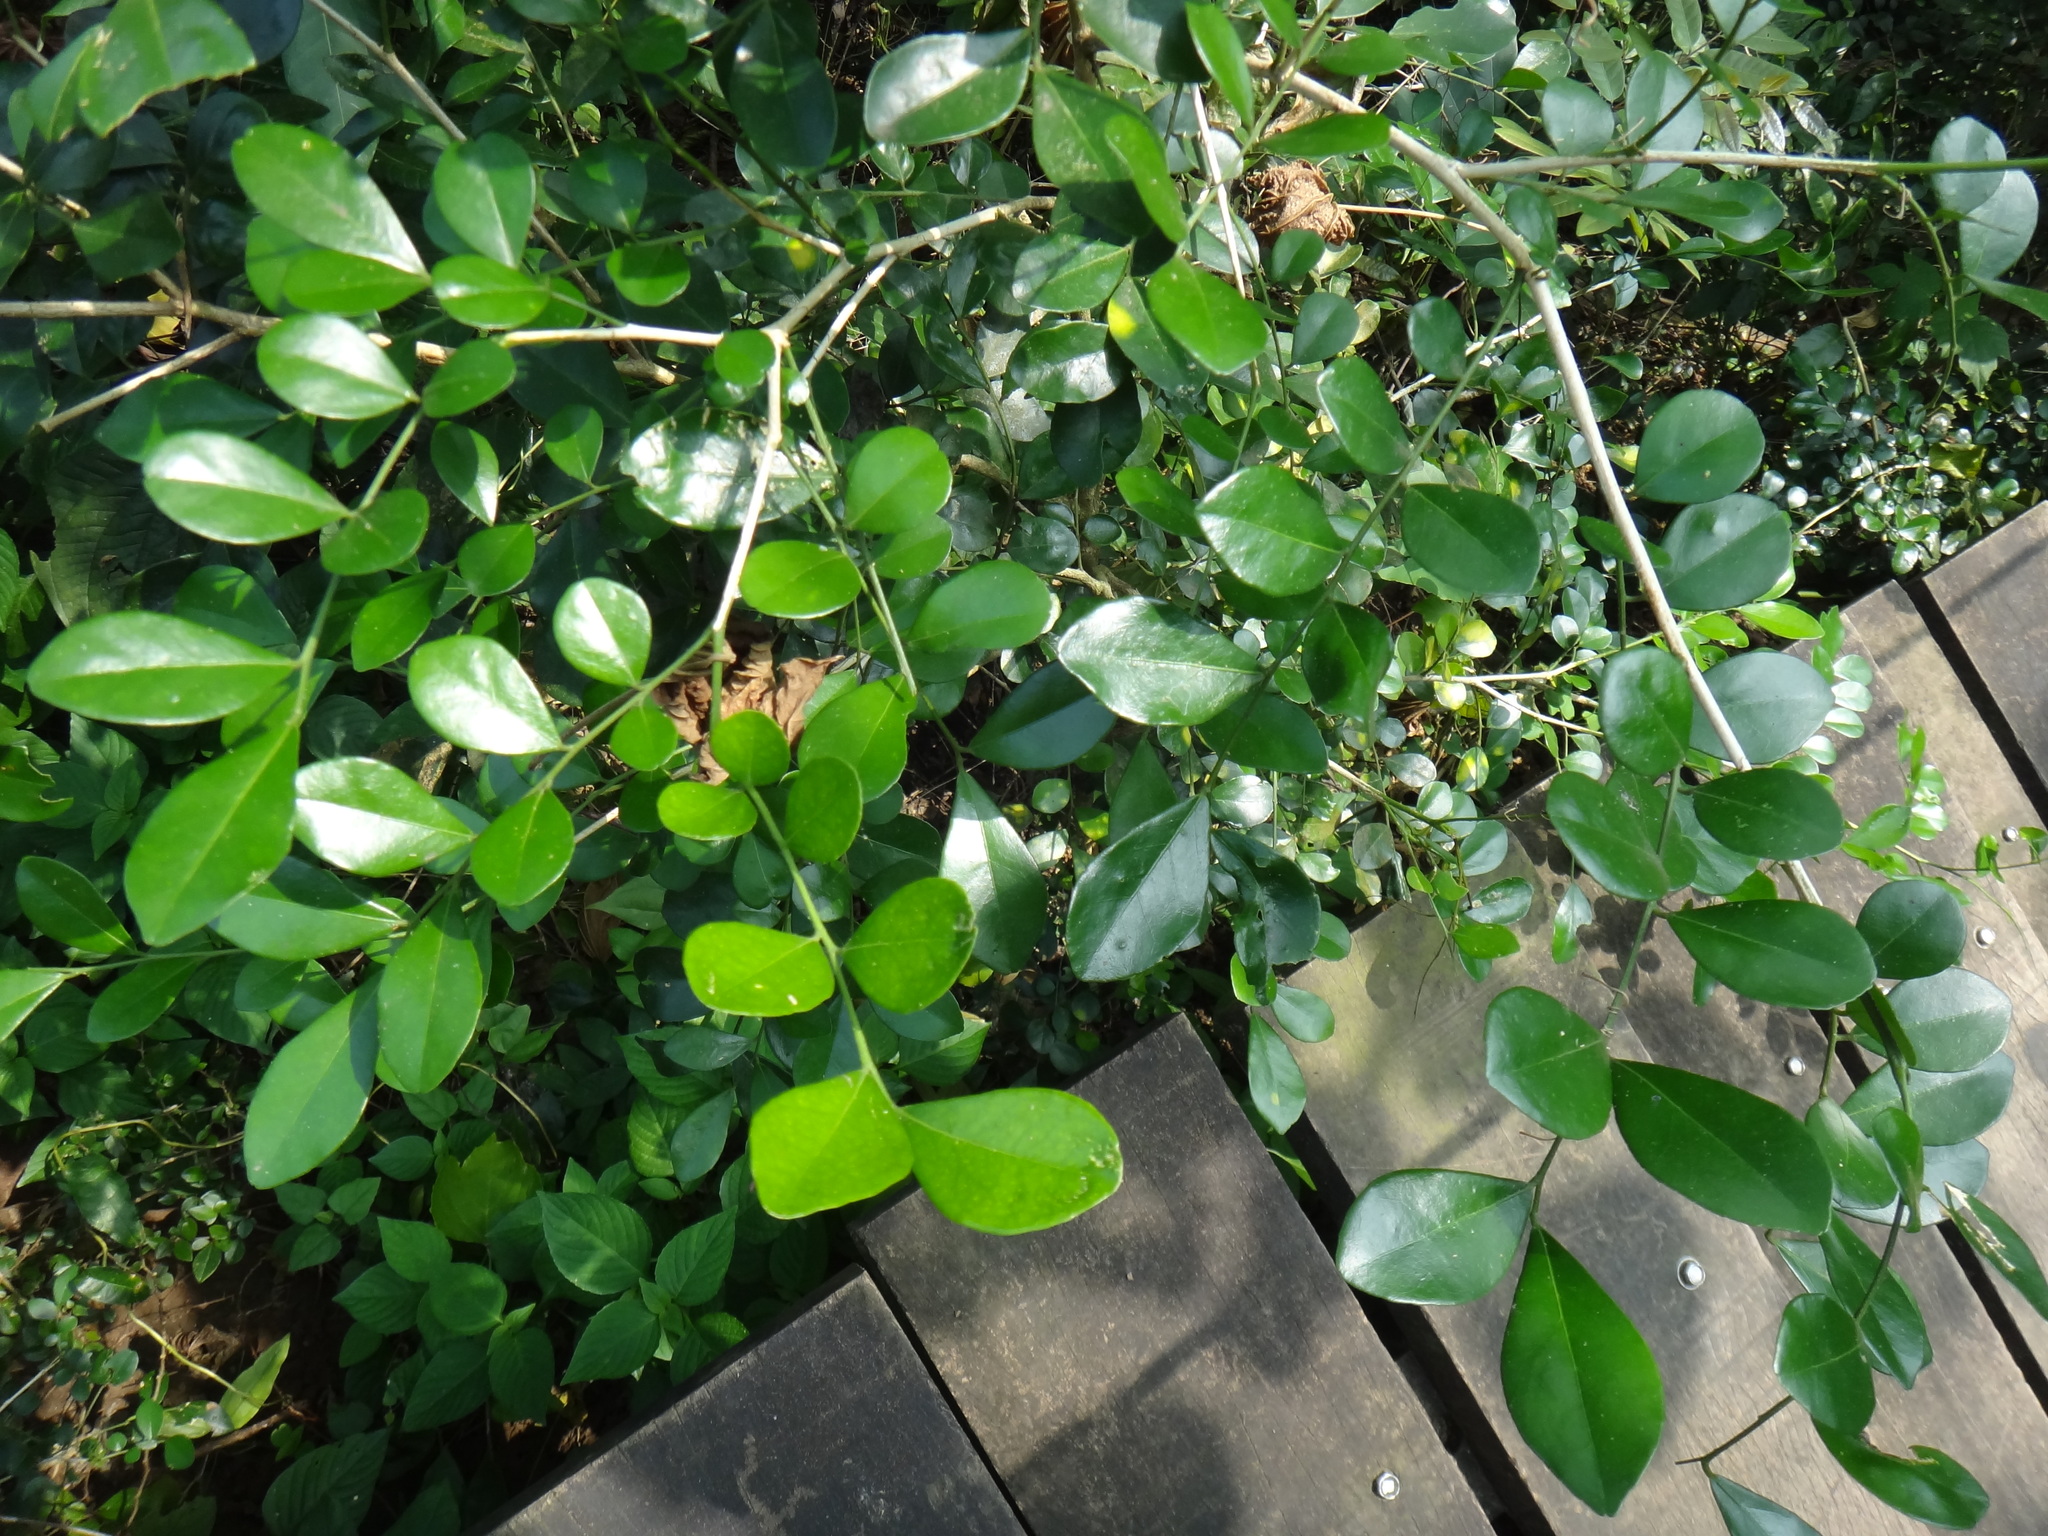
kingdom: Plantae
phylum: Tracheophyta
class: Magnoliopsida
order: Sapindales
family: Rutaceae
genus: Murraya
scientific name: Murraya paniculata
